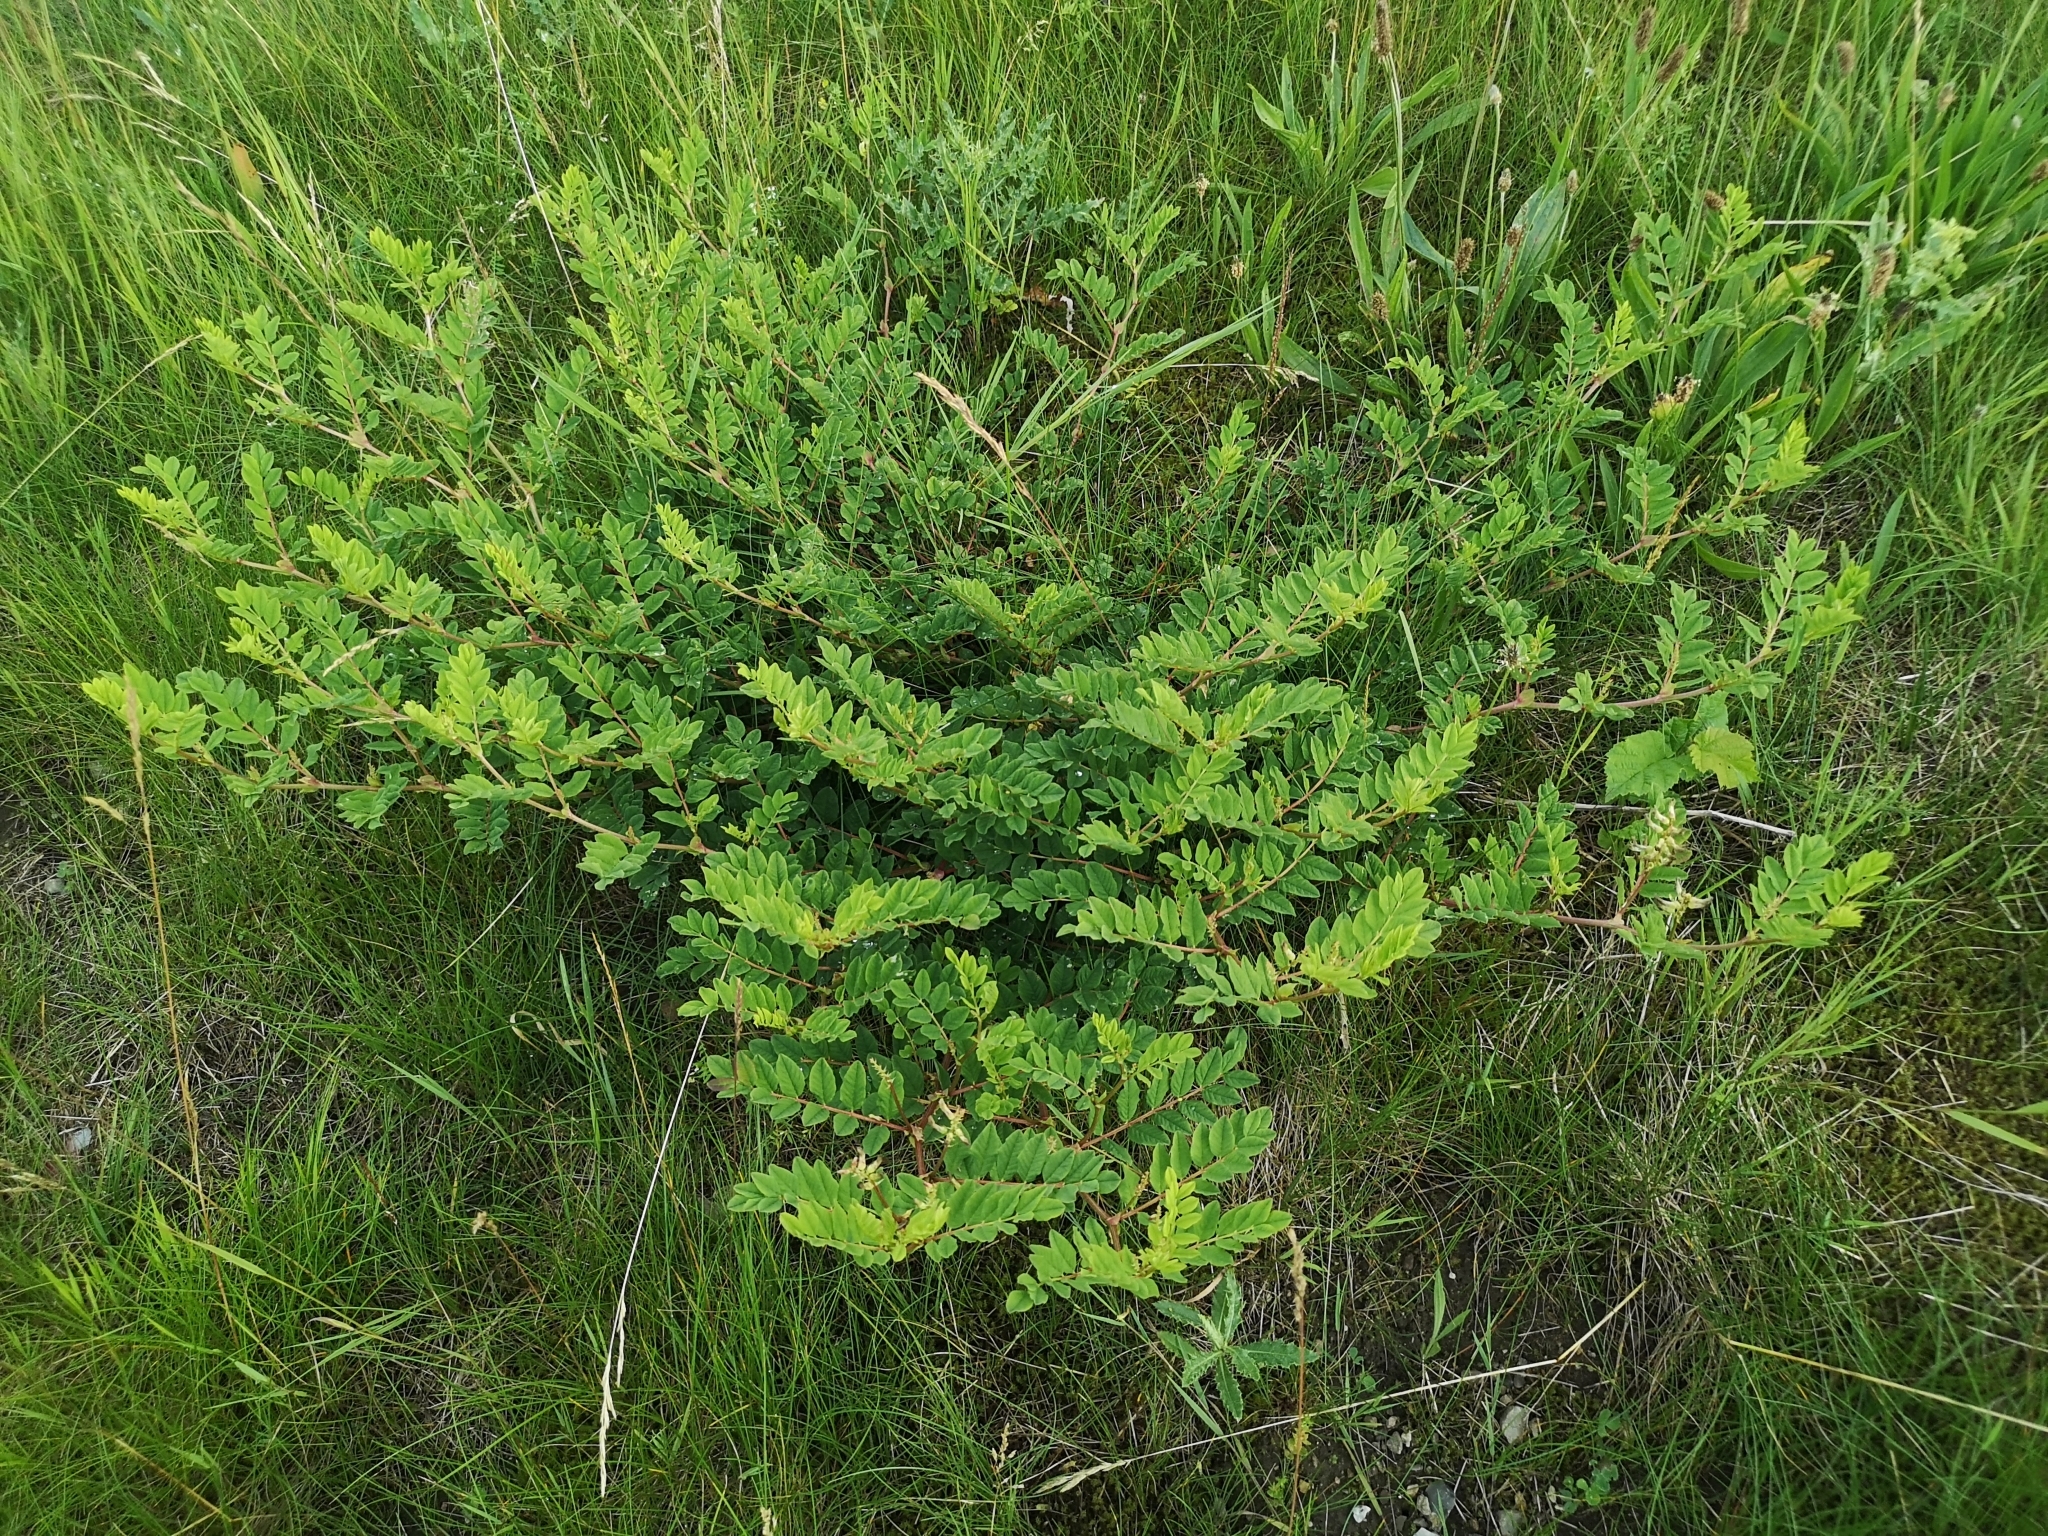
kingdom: Plantae
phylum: Tracheophyta
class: Magnoliopsida
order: Fabales
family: Fabaceae
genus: Astragalus
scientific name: Astragalus glycyphyllos
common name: Wild liquorice
